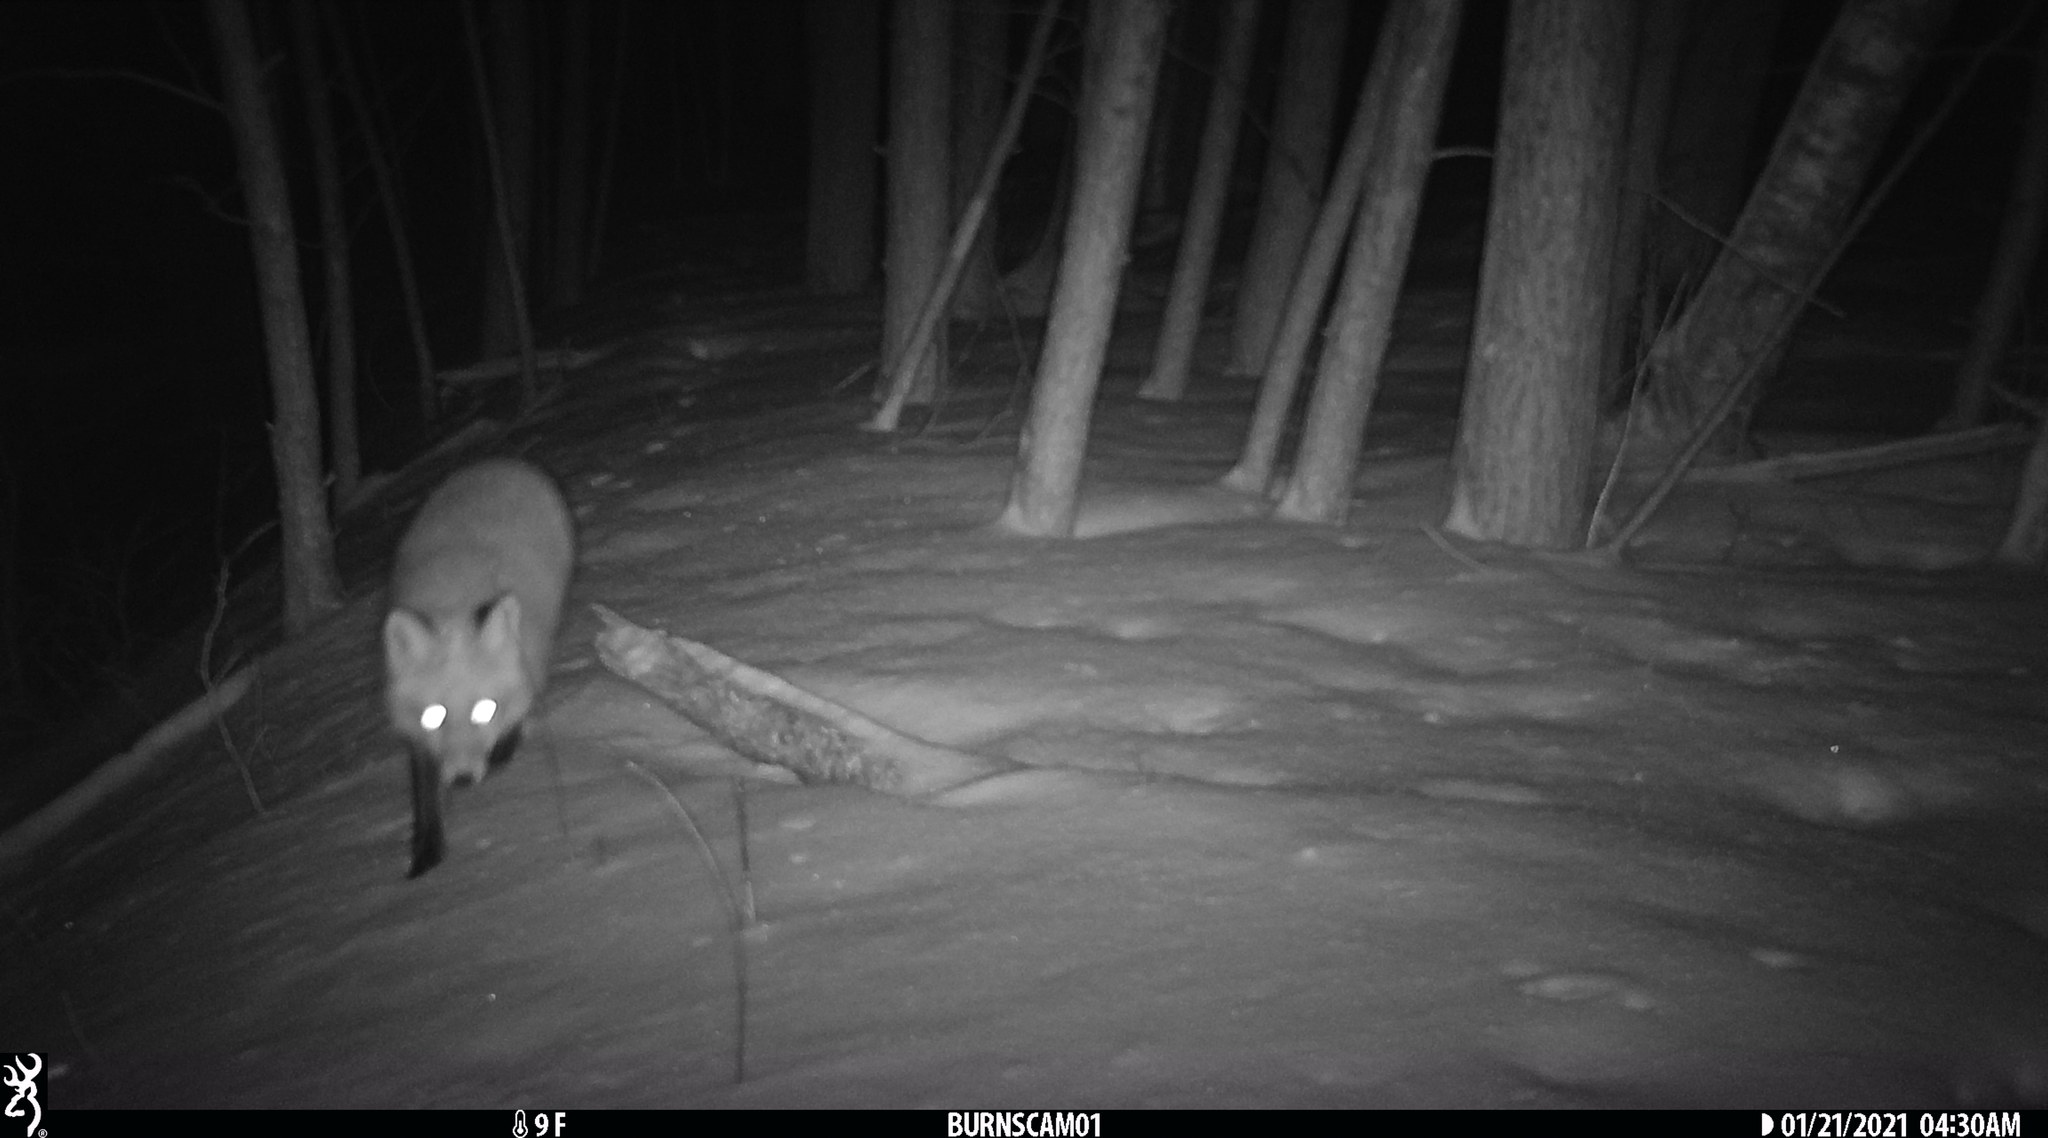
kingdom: Animalia
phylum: Chordata
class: Mammalia
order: Carnivora
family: Canidae
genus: Vulpes
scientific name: Vulpes vulpes
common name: Red fox
